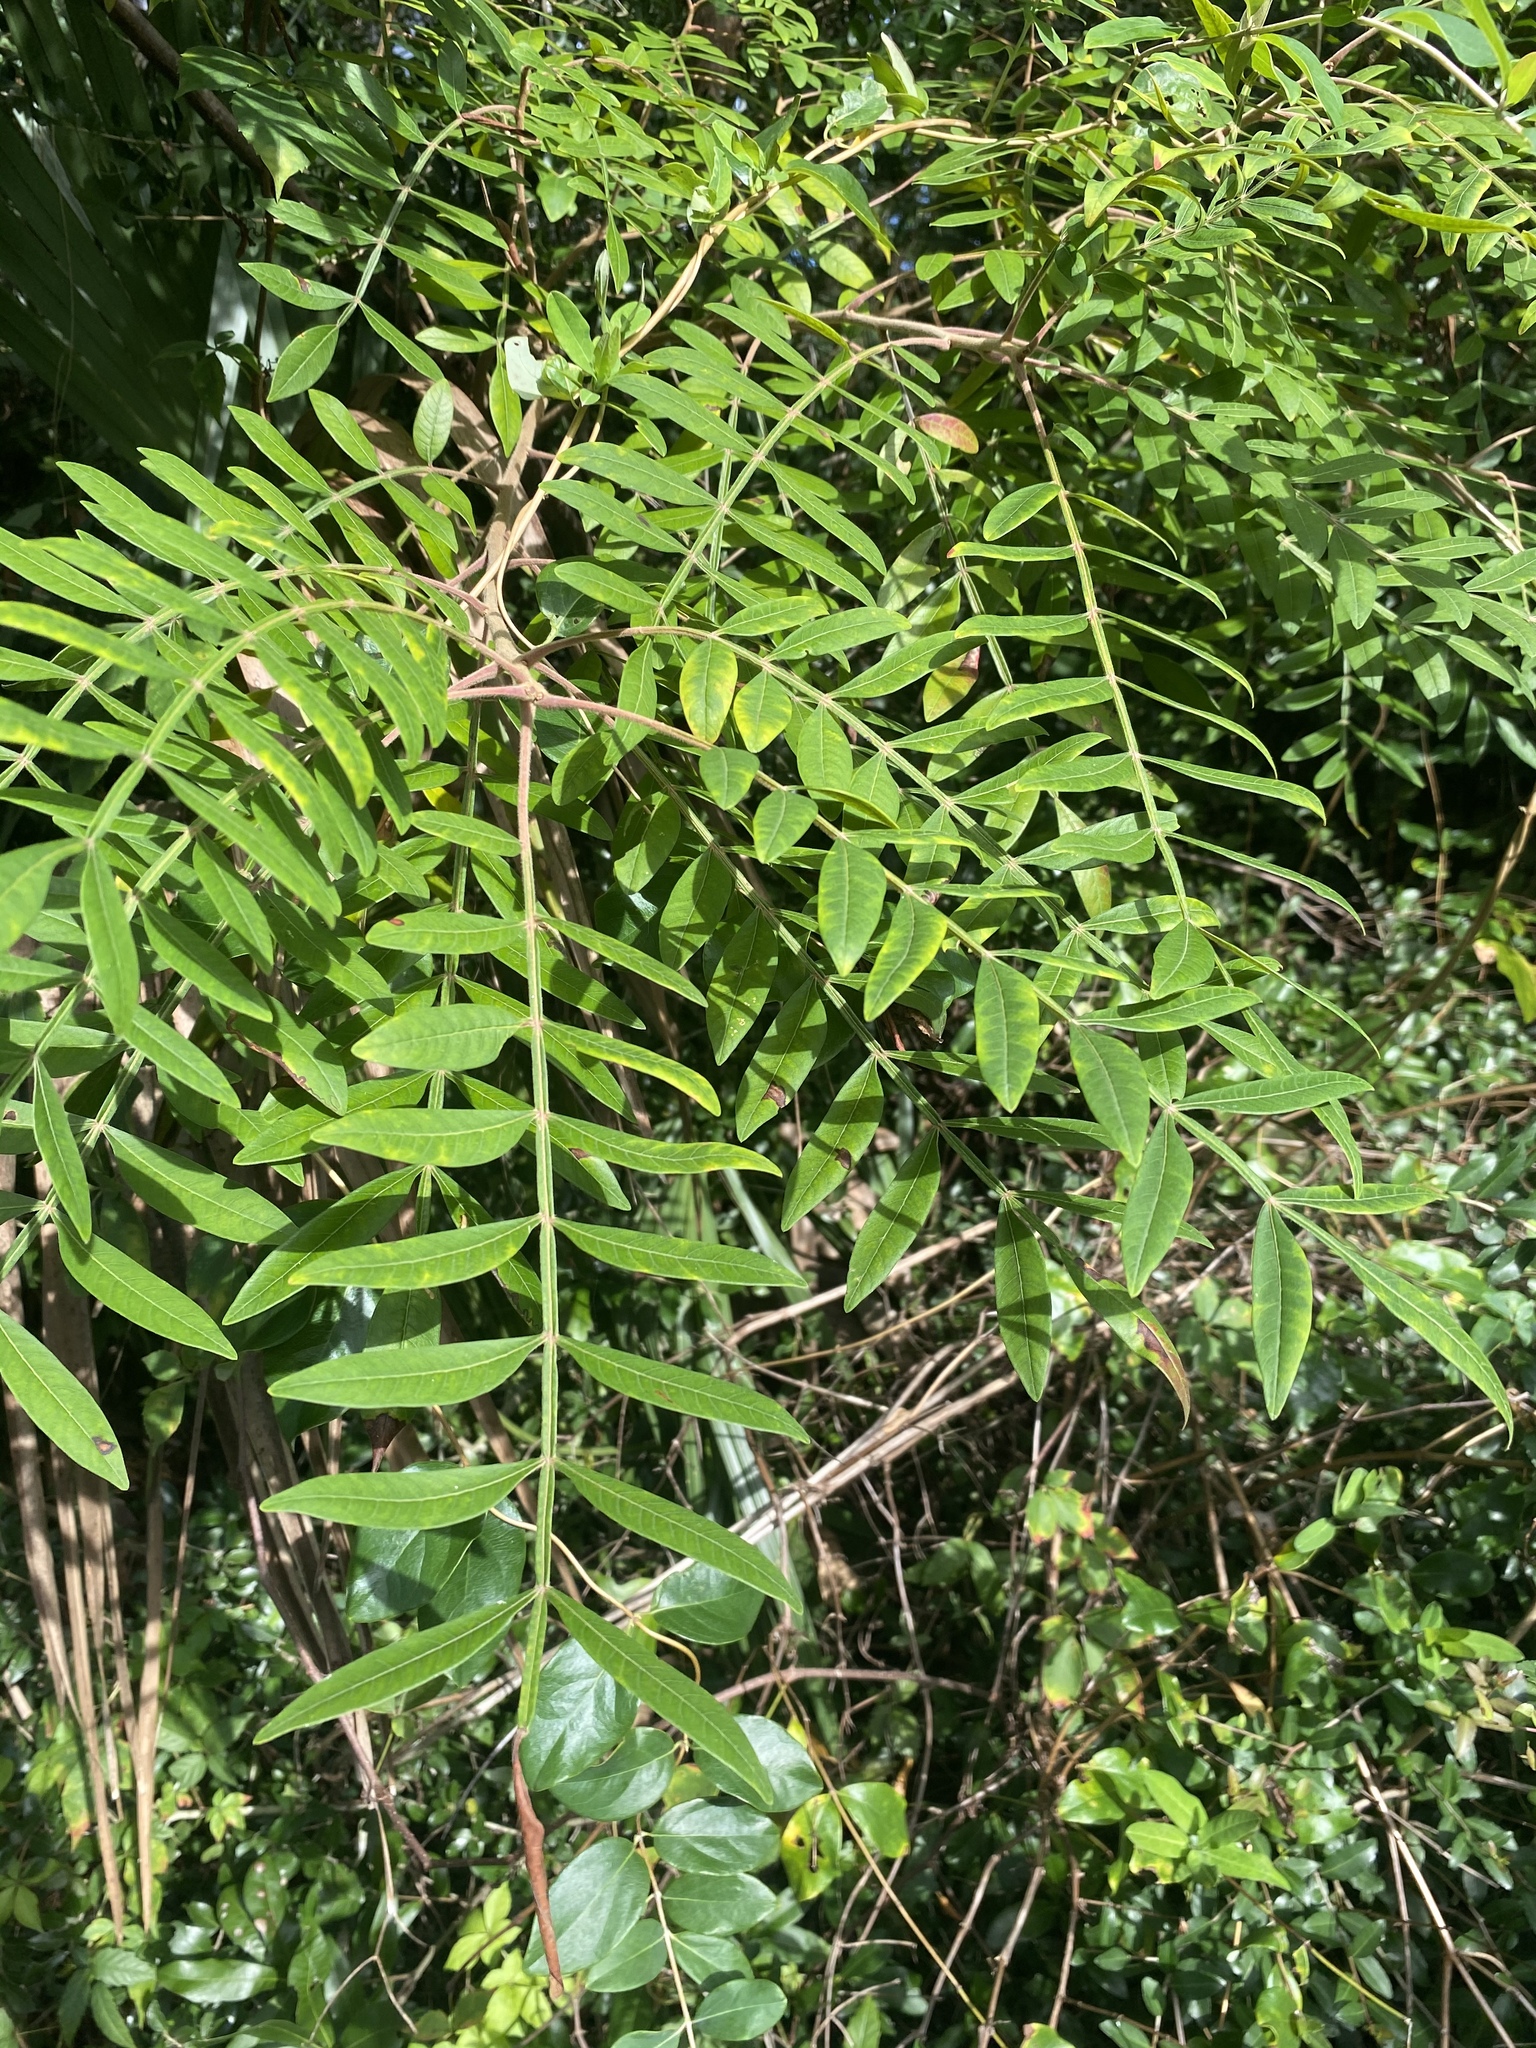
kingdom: Plantae
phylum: Tracheophyta
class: Magnoliopsida
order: Sapindales
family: Anacardiaceae
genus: Rhus
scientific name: Rhus copallina
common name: Shining sumac
